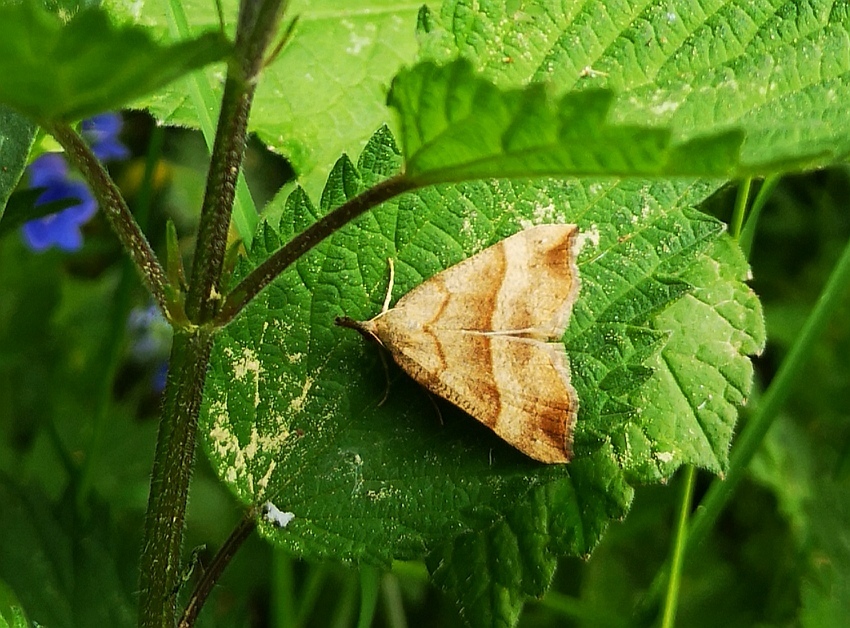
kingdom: Animalia
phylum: Arthropoda
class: Insecta
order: Lepidoptera
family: Erebidae
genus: Hypena
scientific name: Hypena proboscidalis
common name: Snout
